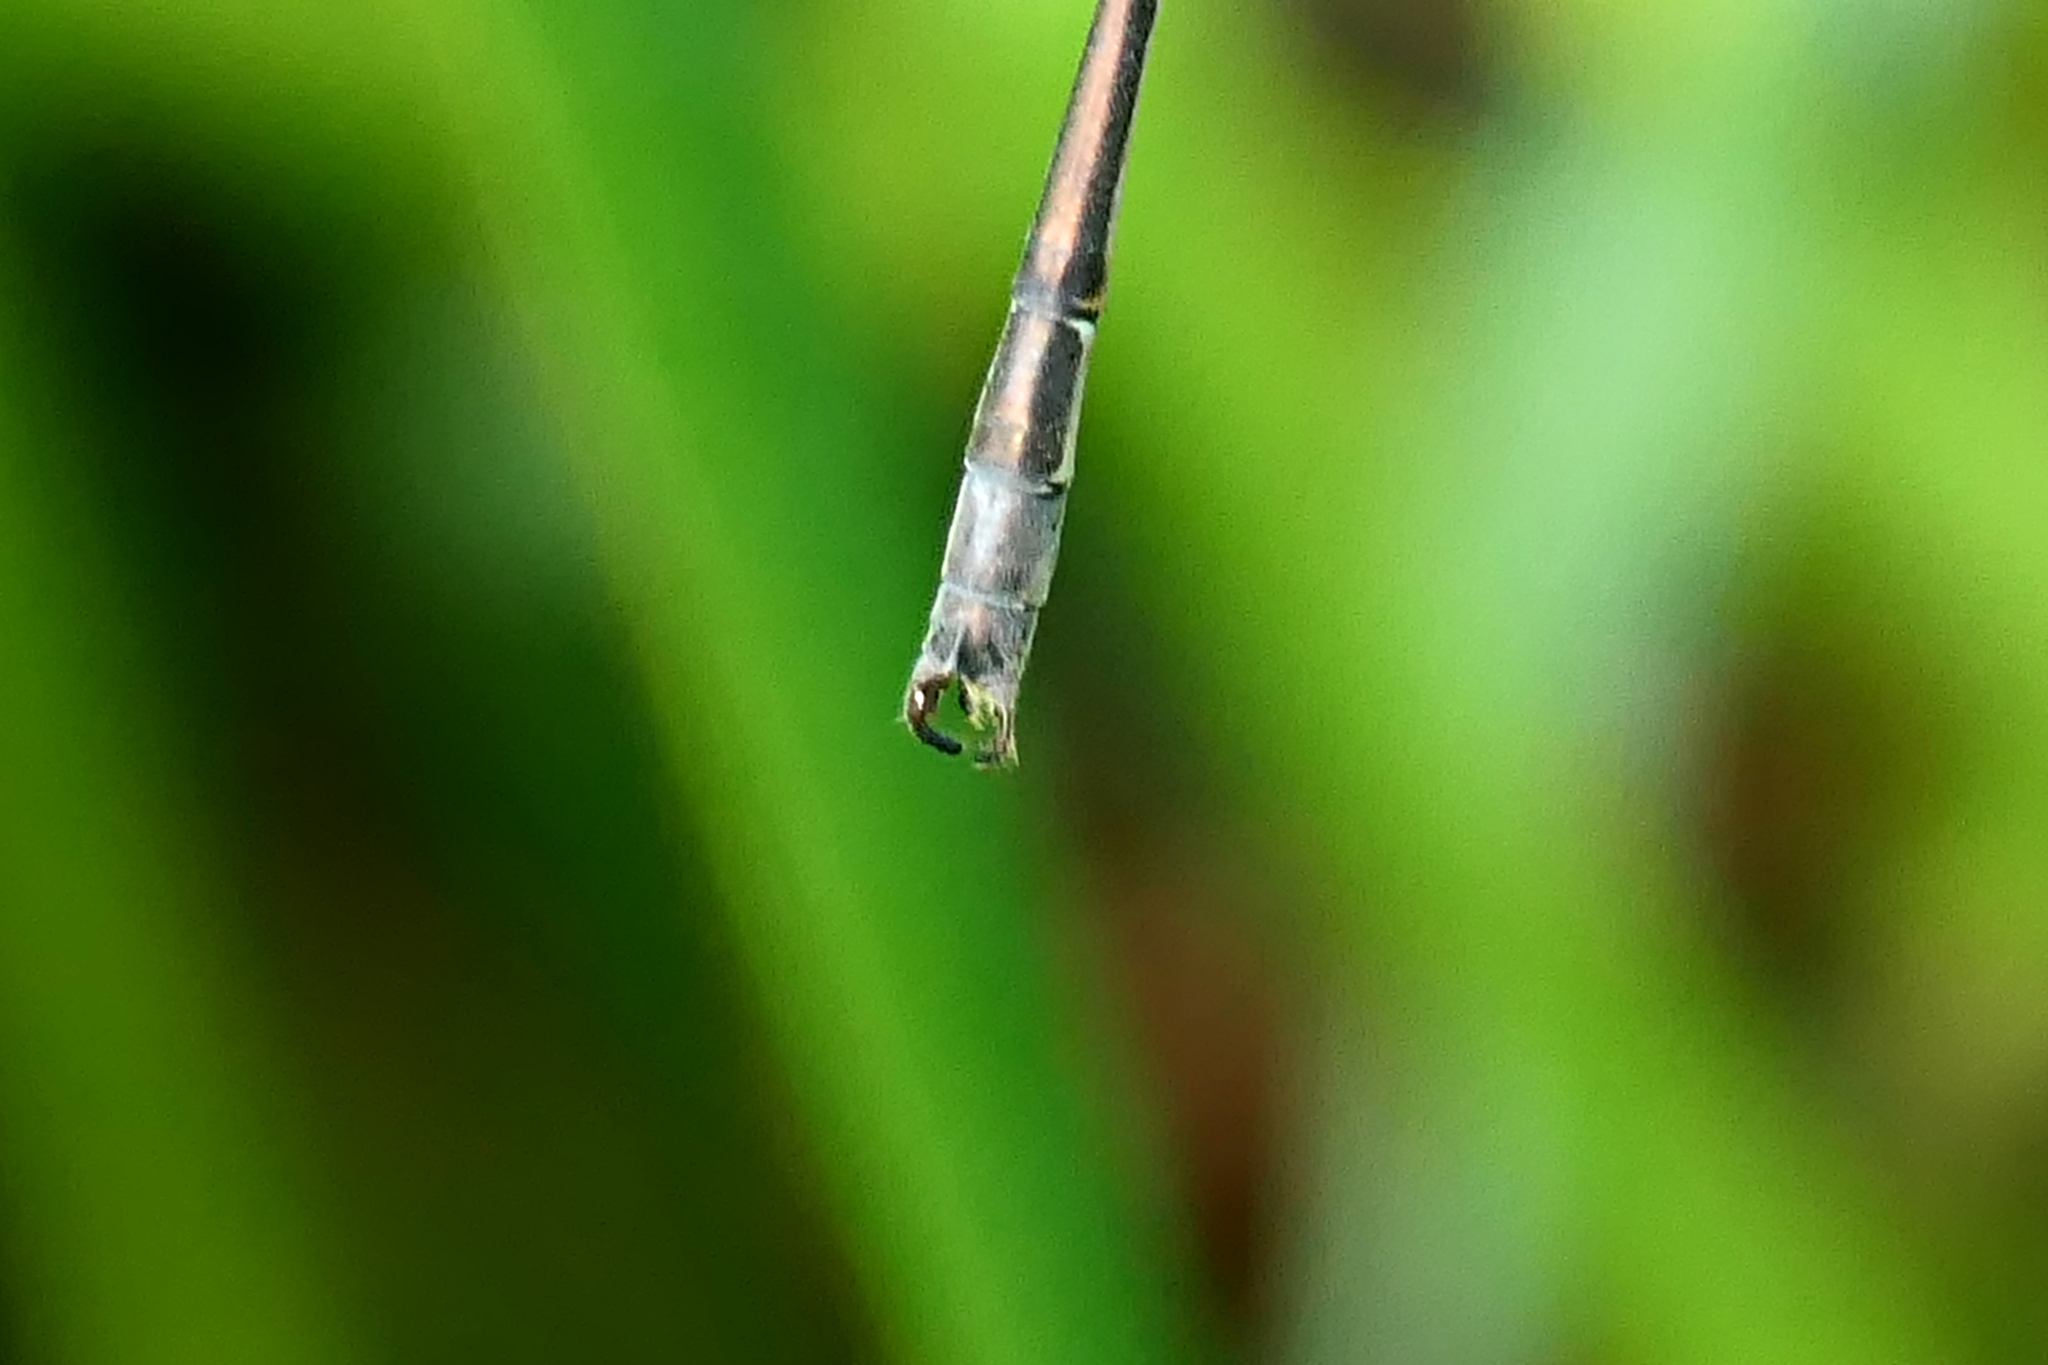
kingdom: Animalia
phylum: Arthropoda
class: Insecta
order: Odonata
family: Lestidae
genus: Lestes
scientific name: Lestes rectangularis
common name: Slender spreadwing
